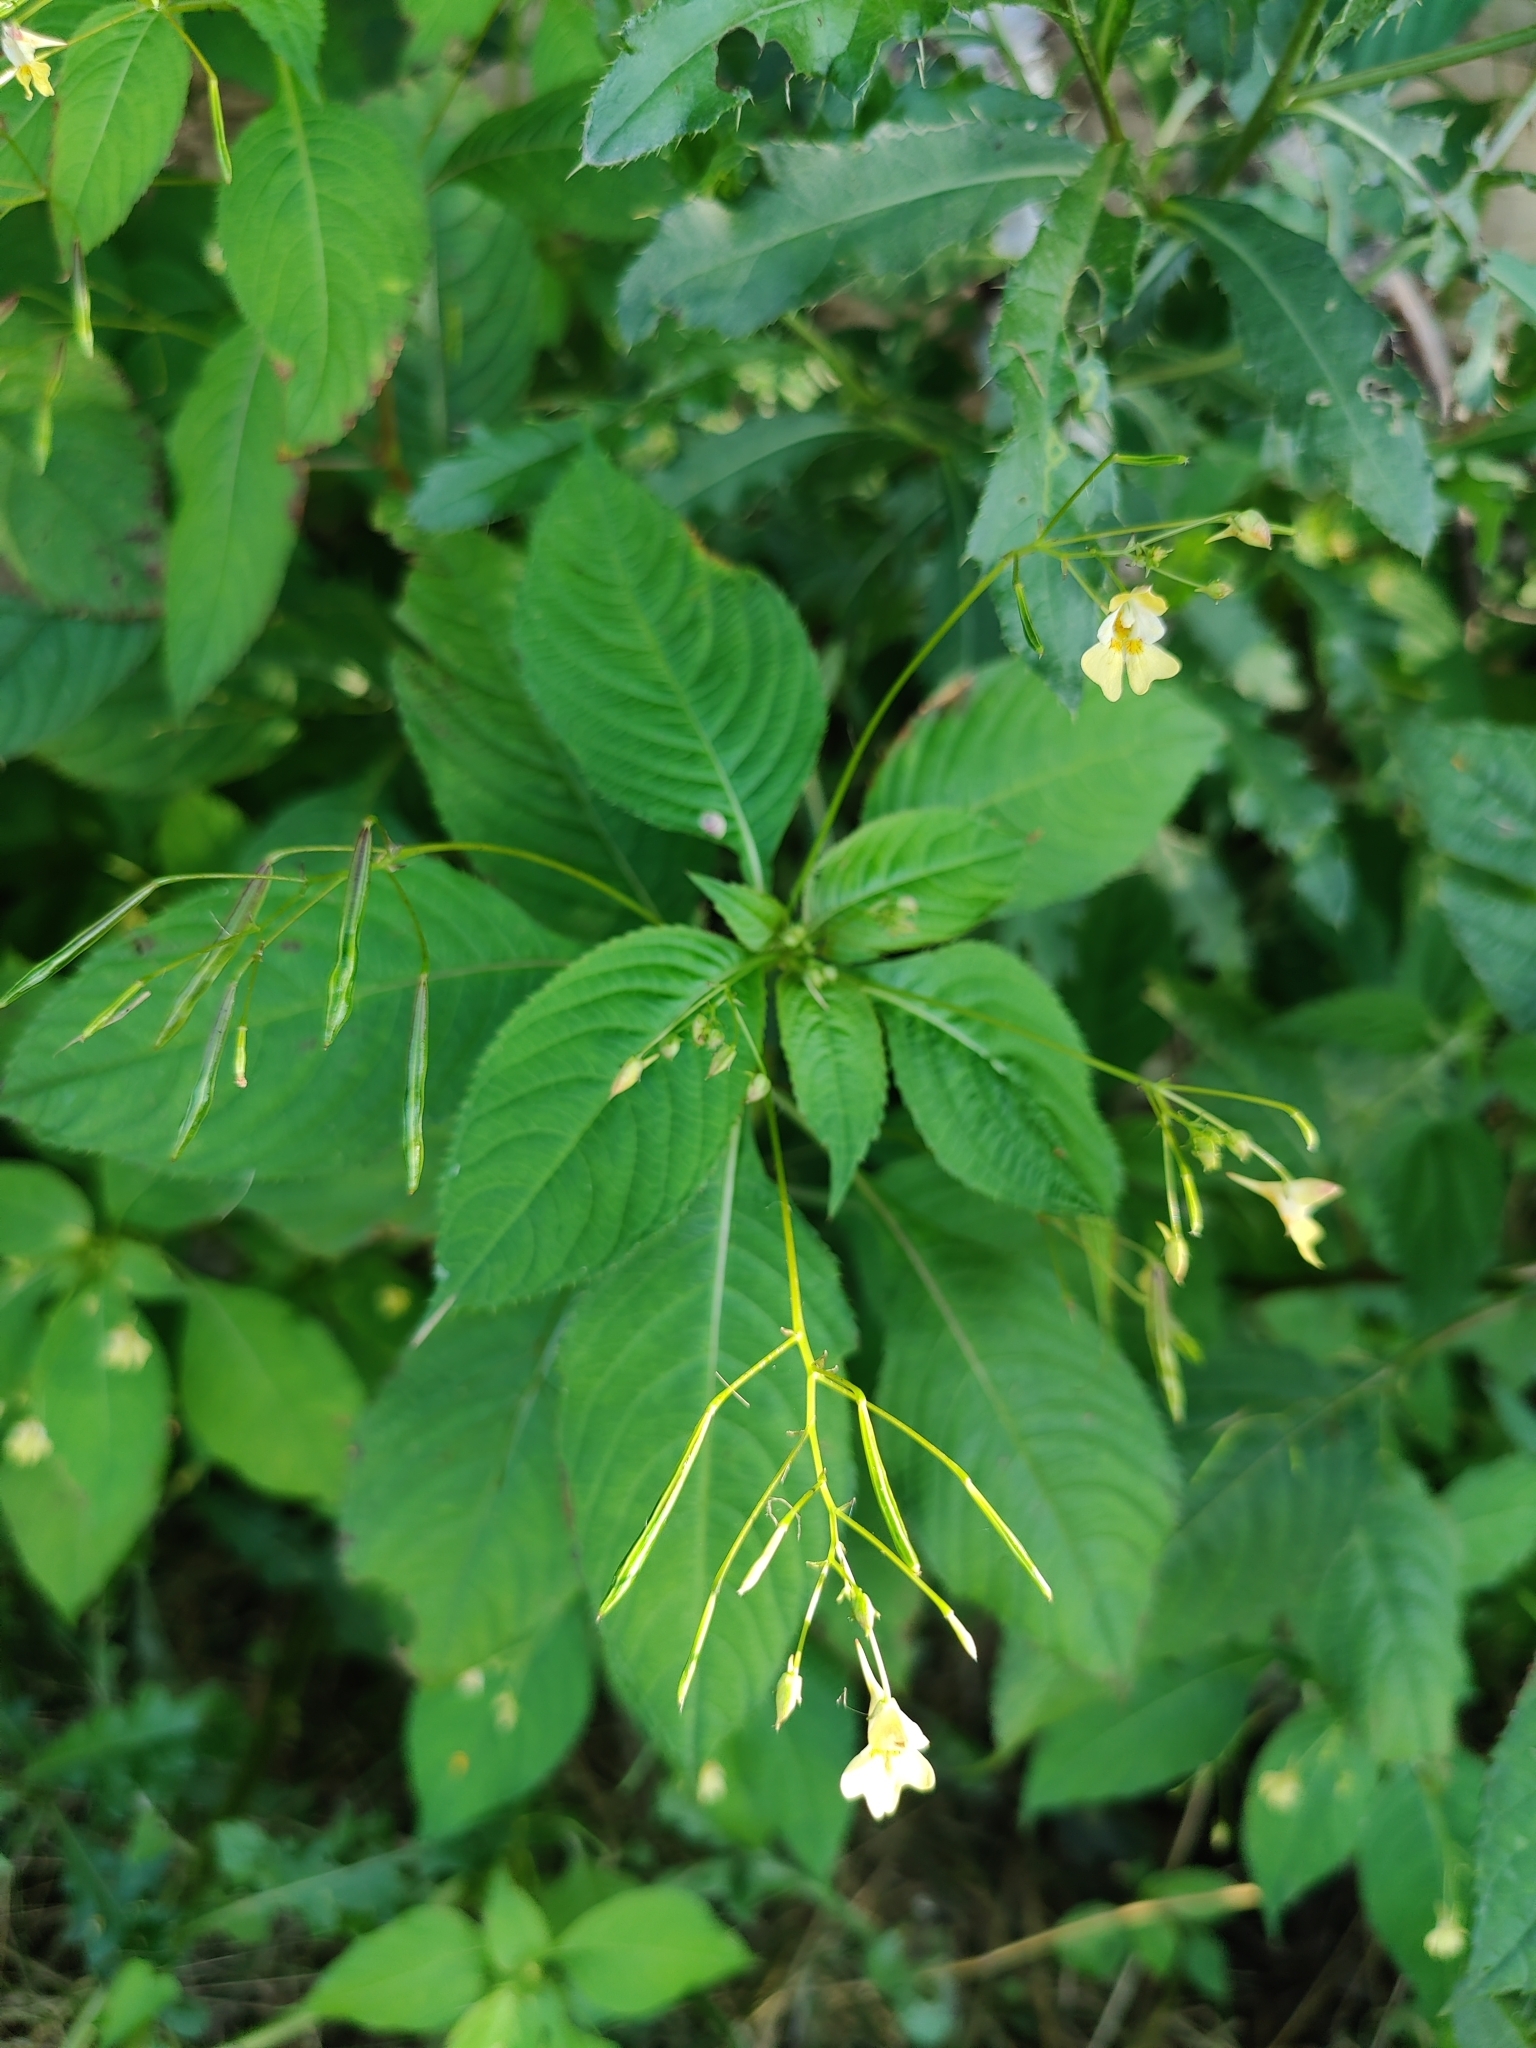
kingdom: Plantae
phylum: Tracheophyta
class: Magnoliopsida
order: Ericales
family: Balsaminaceae
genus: Impatiens
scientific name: Impatiens parviflora
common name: Small balsam
